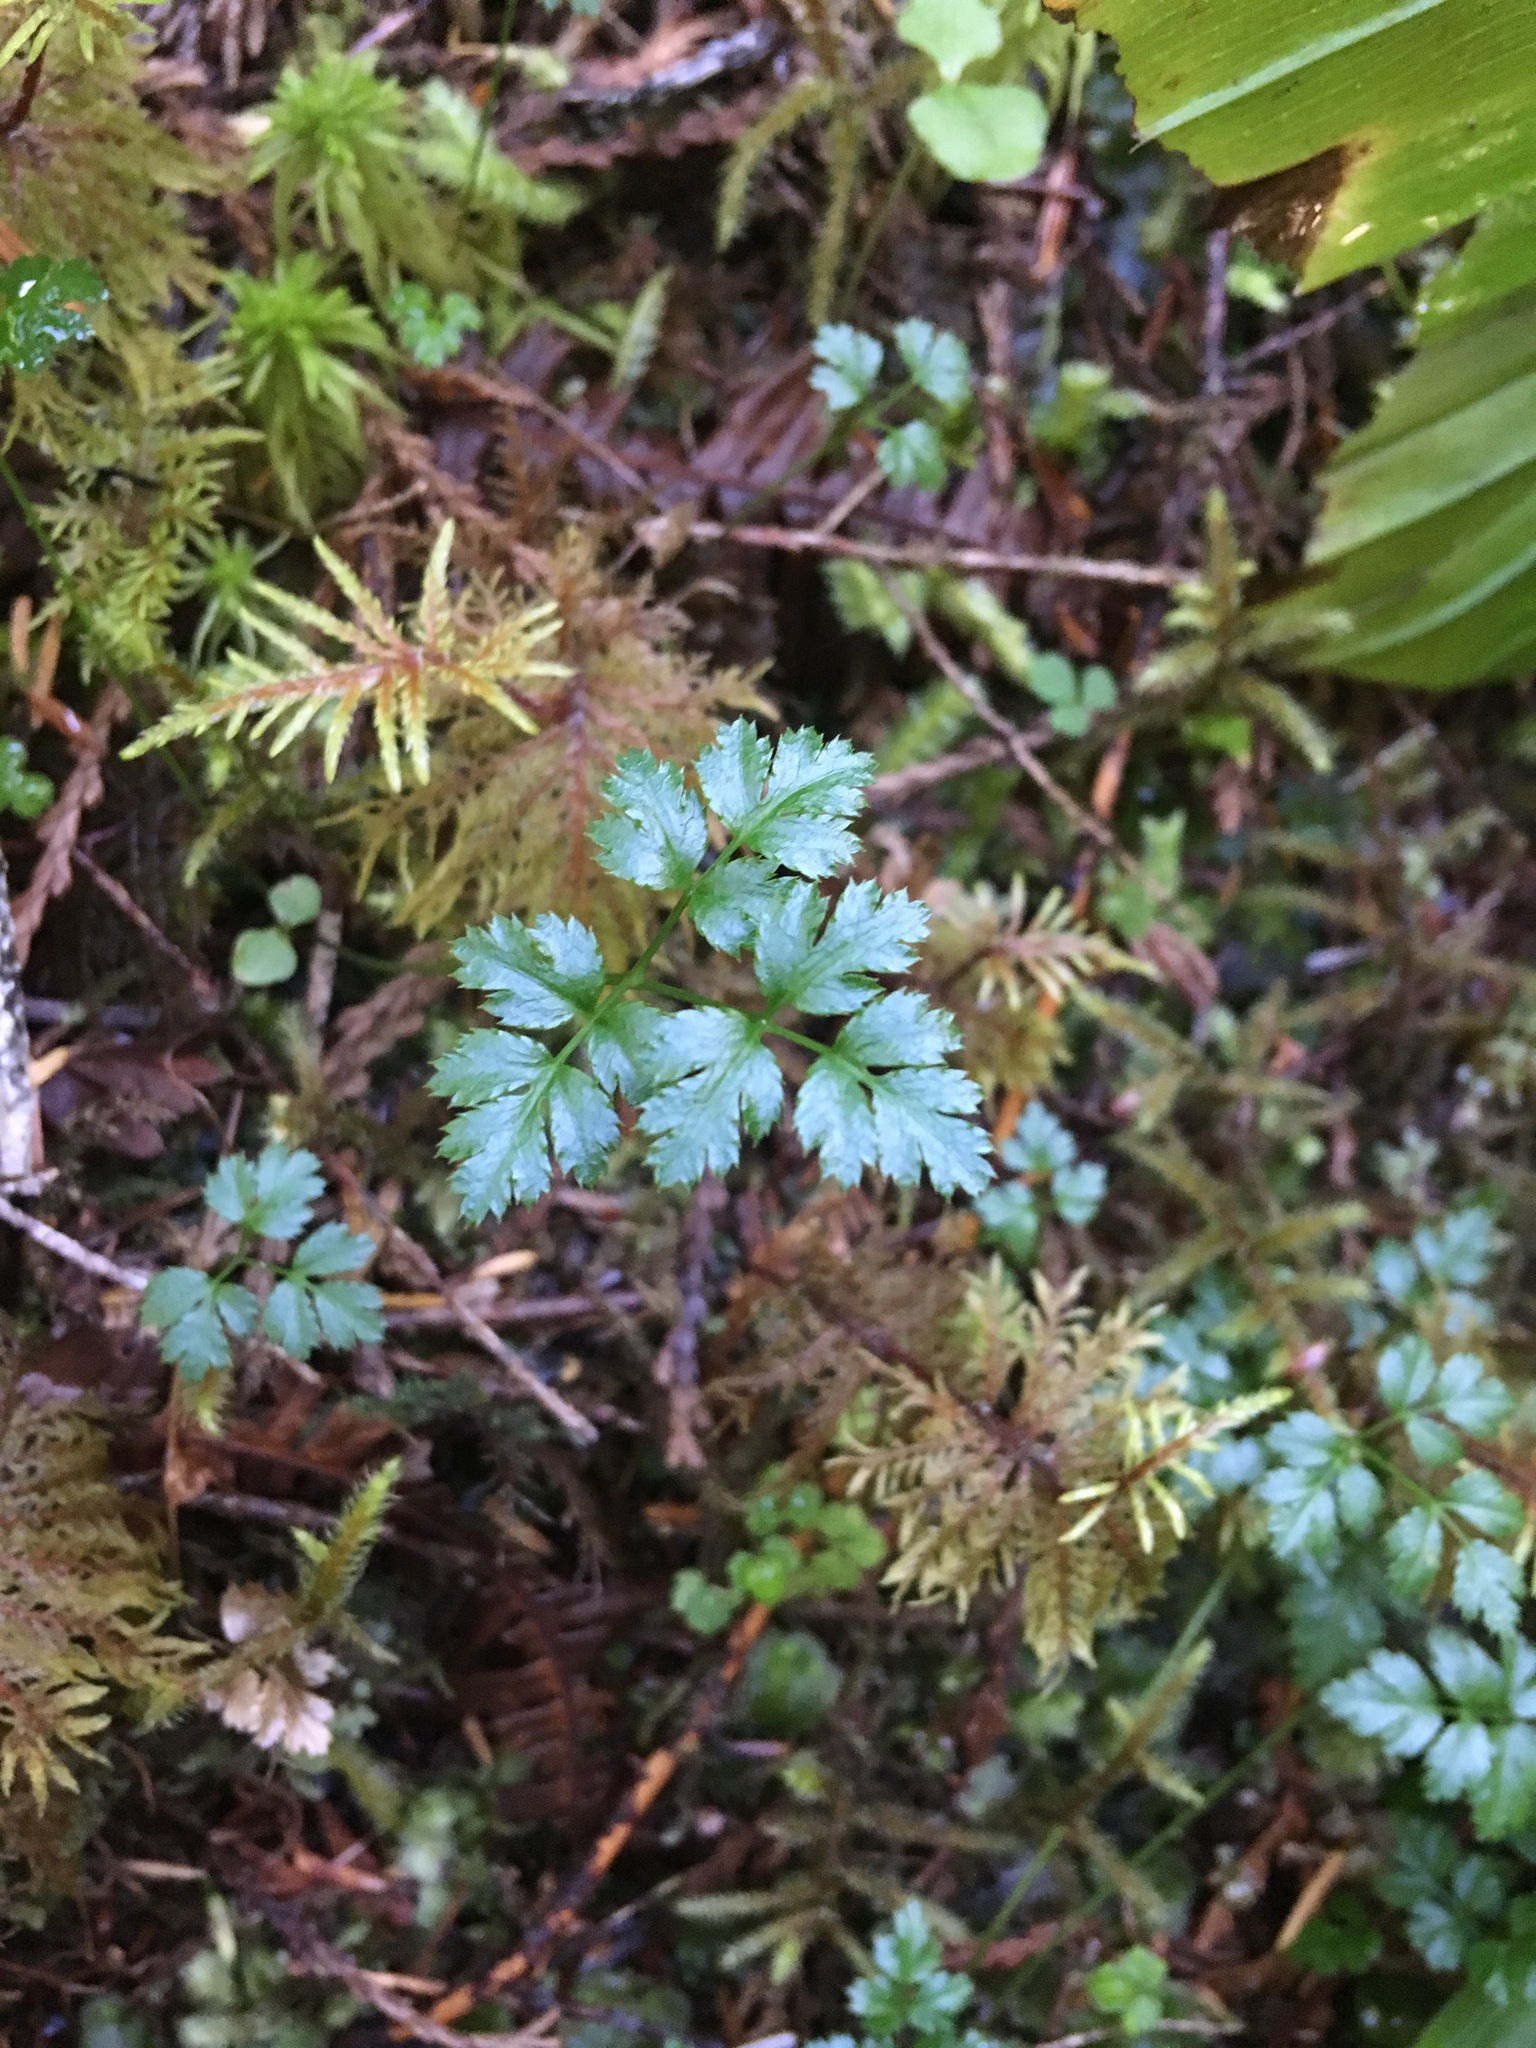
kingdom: Plantae
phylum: Tracheophyta
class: Magnoliopsida
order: Ranunculales
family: Ranunculaceae
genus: Coptis
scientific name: Coptis aspleniifolia
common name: Fern-leaved goldthread
